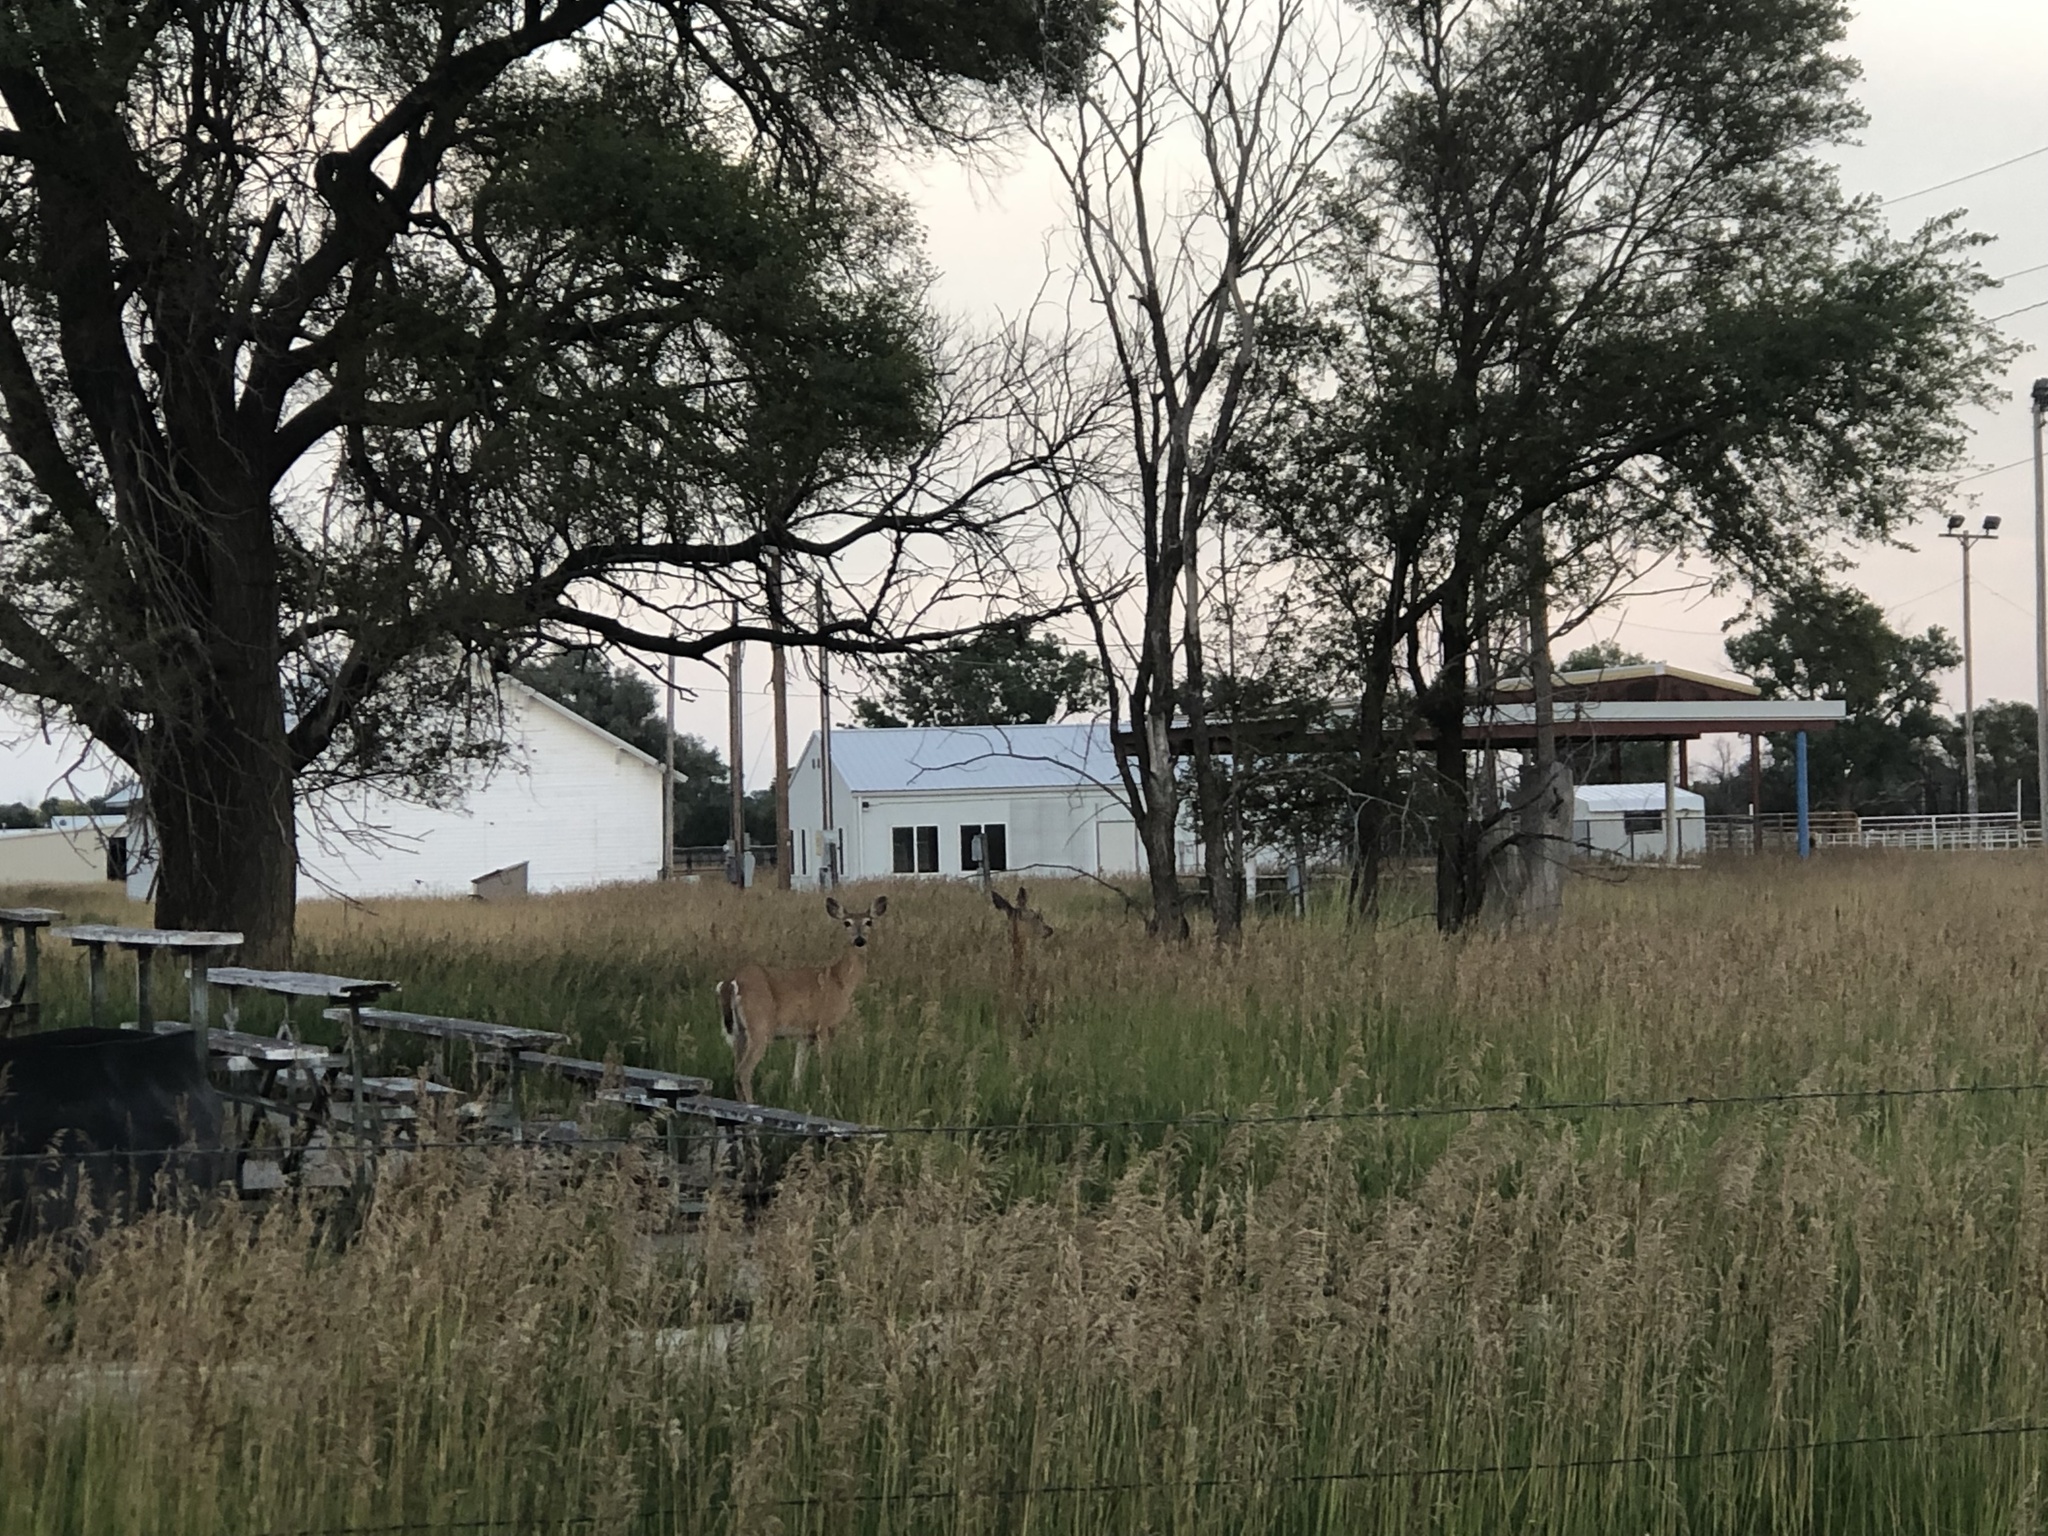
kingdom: Animalia
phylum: Chordata
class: Mammalia
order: Artiodactyla
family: Cervidae
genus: Odocoileus
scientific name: Odocoileus virginianus
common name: White-tailed deer
